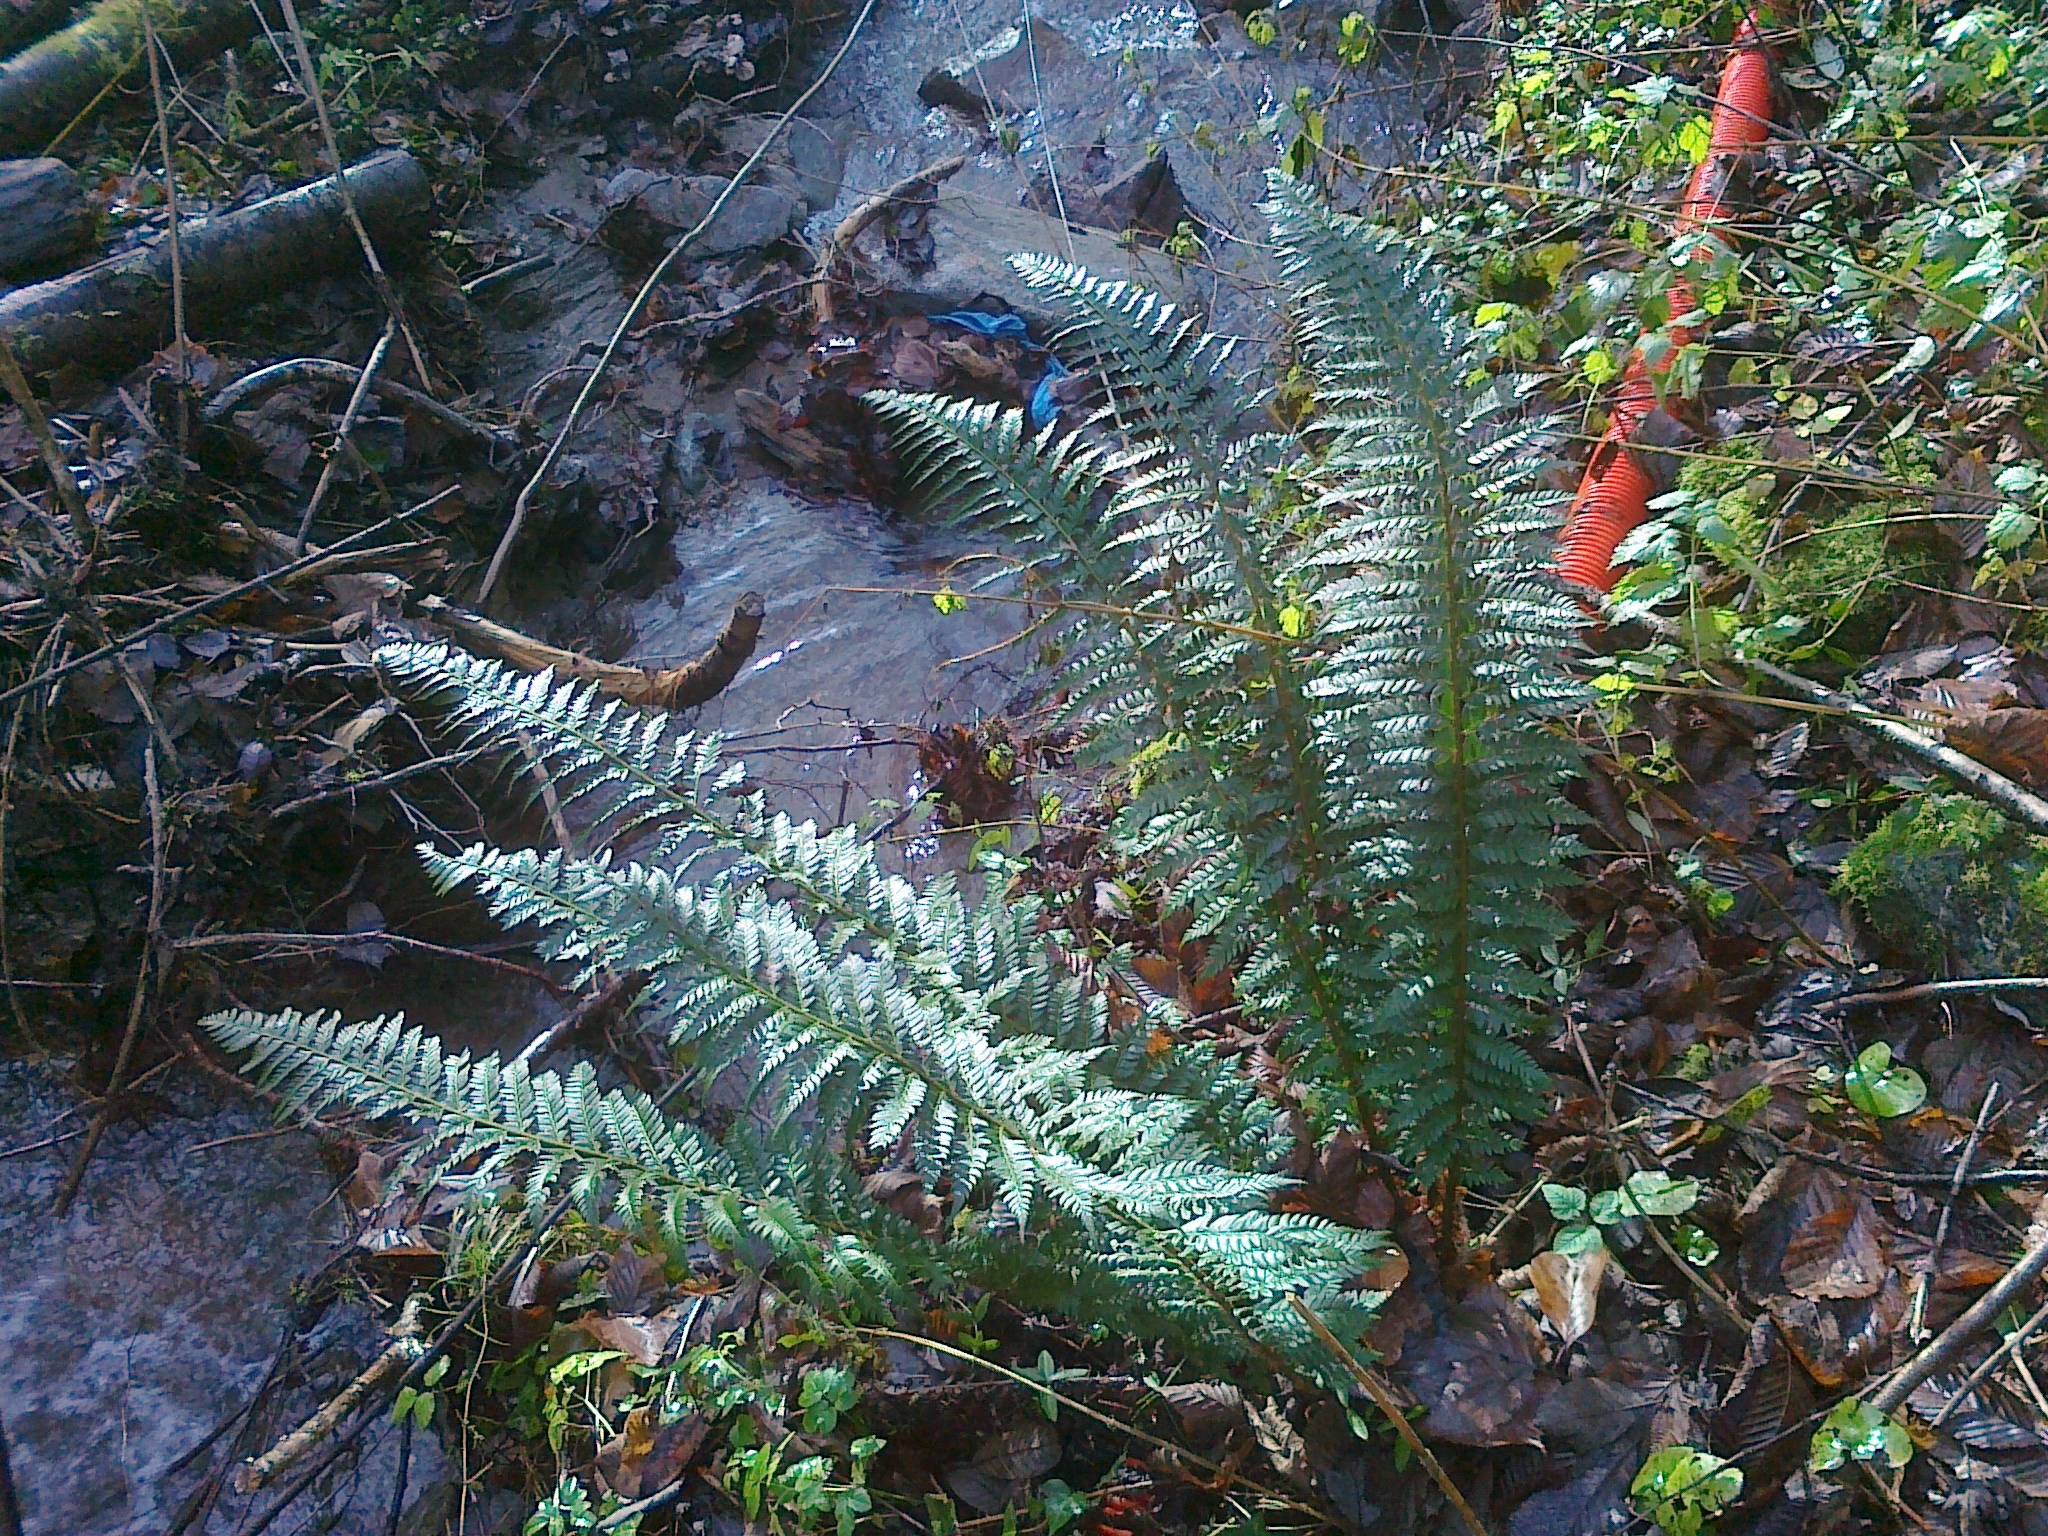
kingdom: Plantae
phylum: Tracheophyta
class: Polypodiopsida
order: Polypodiales
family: Dryopteridaceae
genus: Polystichum
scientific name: Polystichum aculeatum
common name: Hard shield-fern
